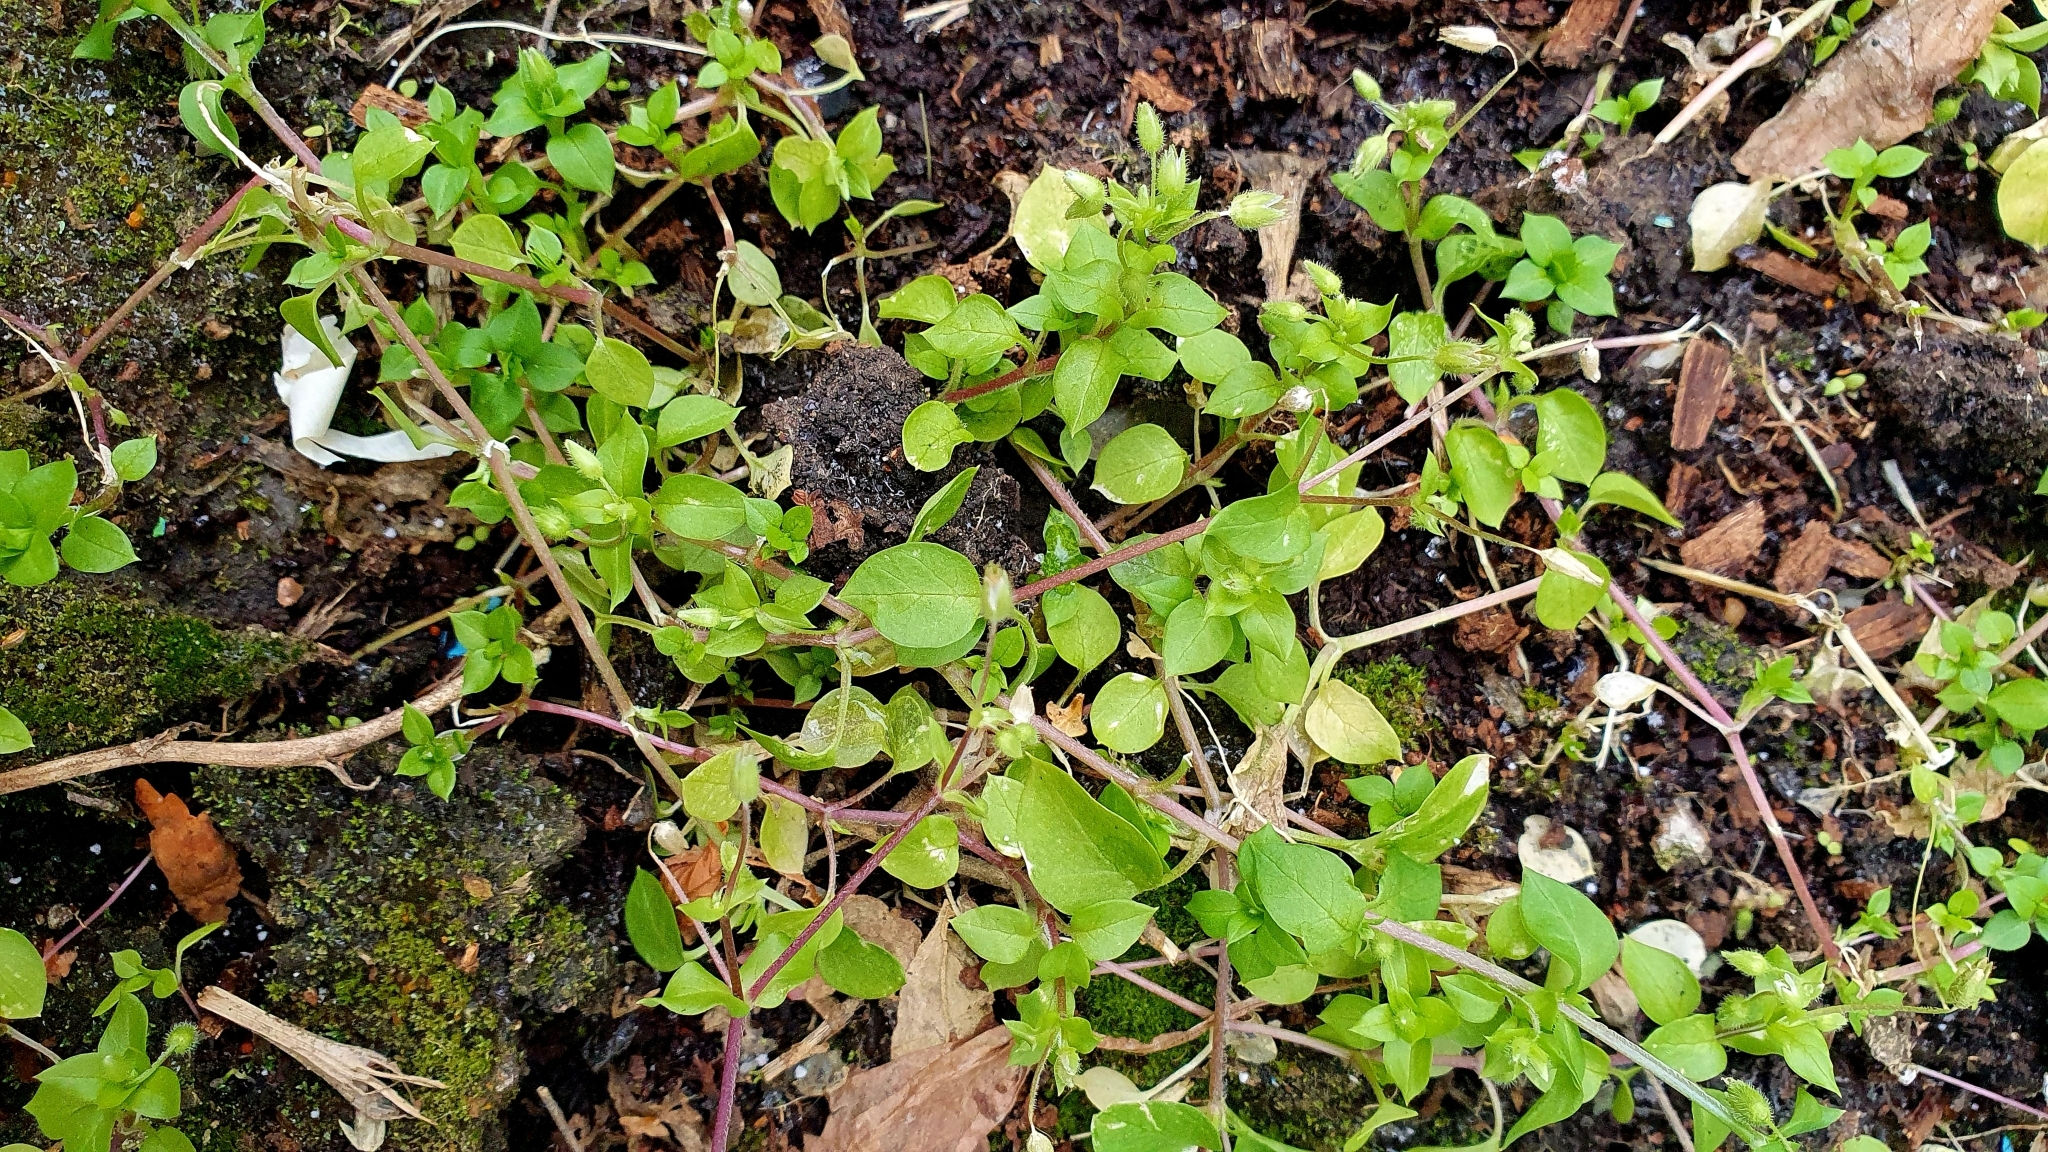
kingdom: Plantae
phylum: Tracheophyta
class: Magnoliopsida
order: Caryophyllales
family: Caryophyllaceae
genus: Stellaria
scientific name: Stellaria media
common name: Common chickweed
